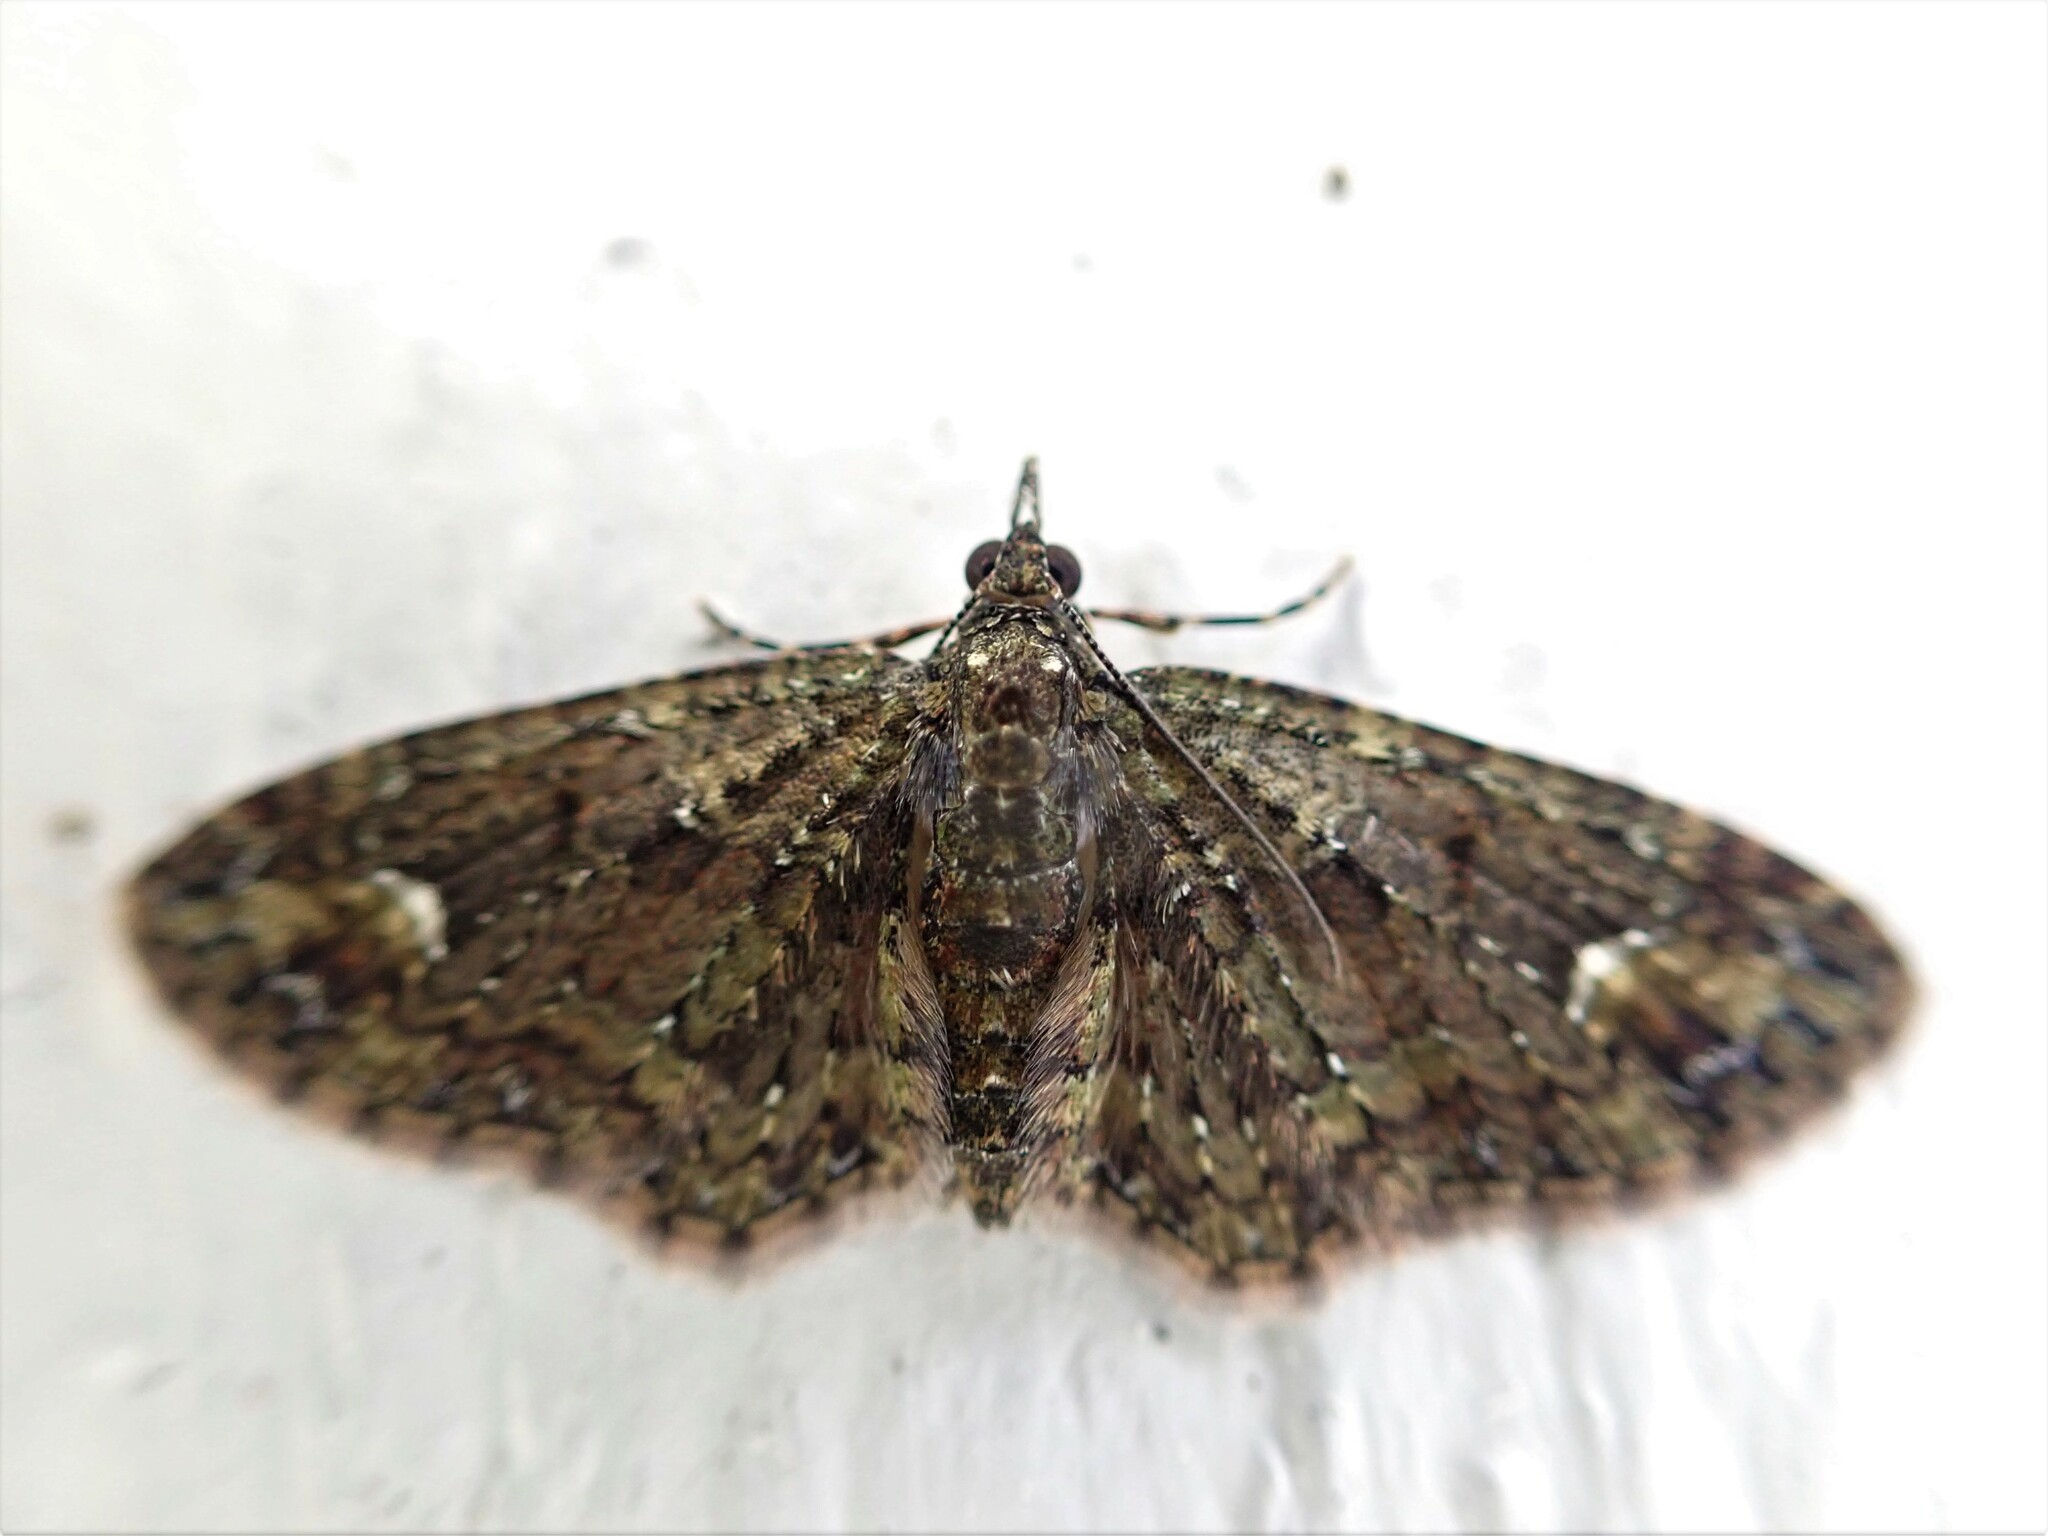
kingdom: Animalia
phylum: Arthropoda
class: Insecta
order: Lepidoptera
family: Geometridae
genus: Pasiphilodes
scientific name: Pasiphilodes testulata
